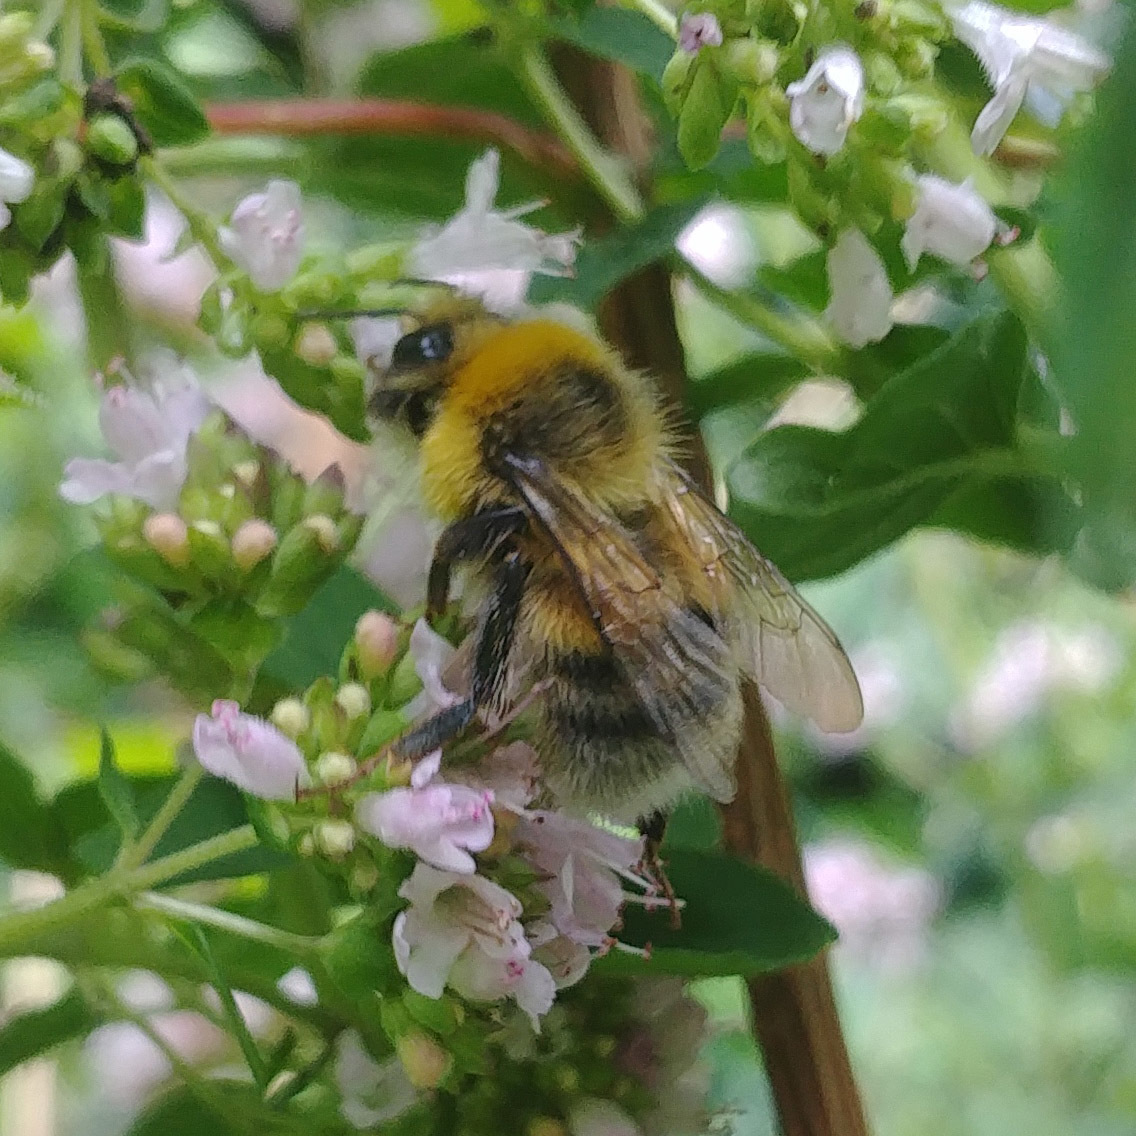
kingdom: Animalia
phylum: Arthropoda
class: Insecta
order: Hymenoptera
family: Apidae
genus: Bombus
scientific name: Bombus lucorum
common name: White-tailed bumblebee
